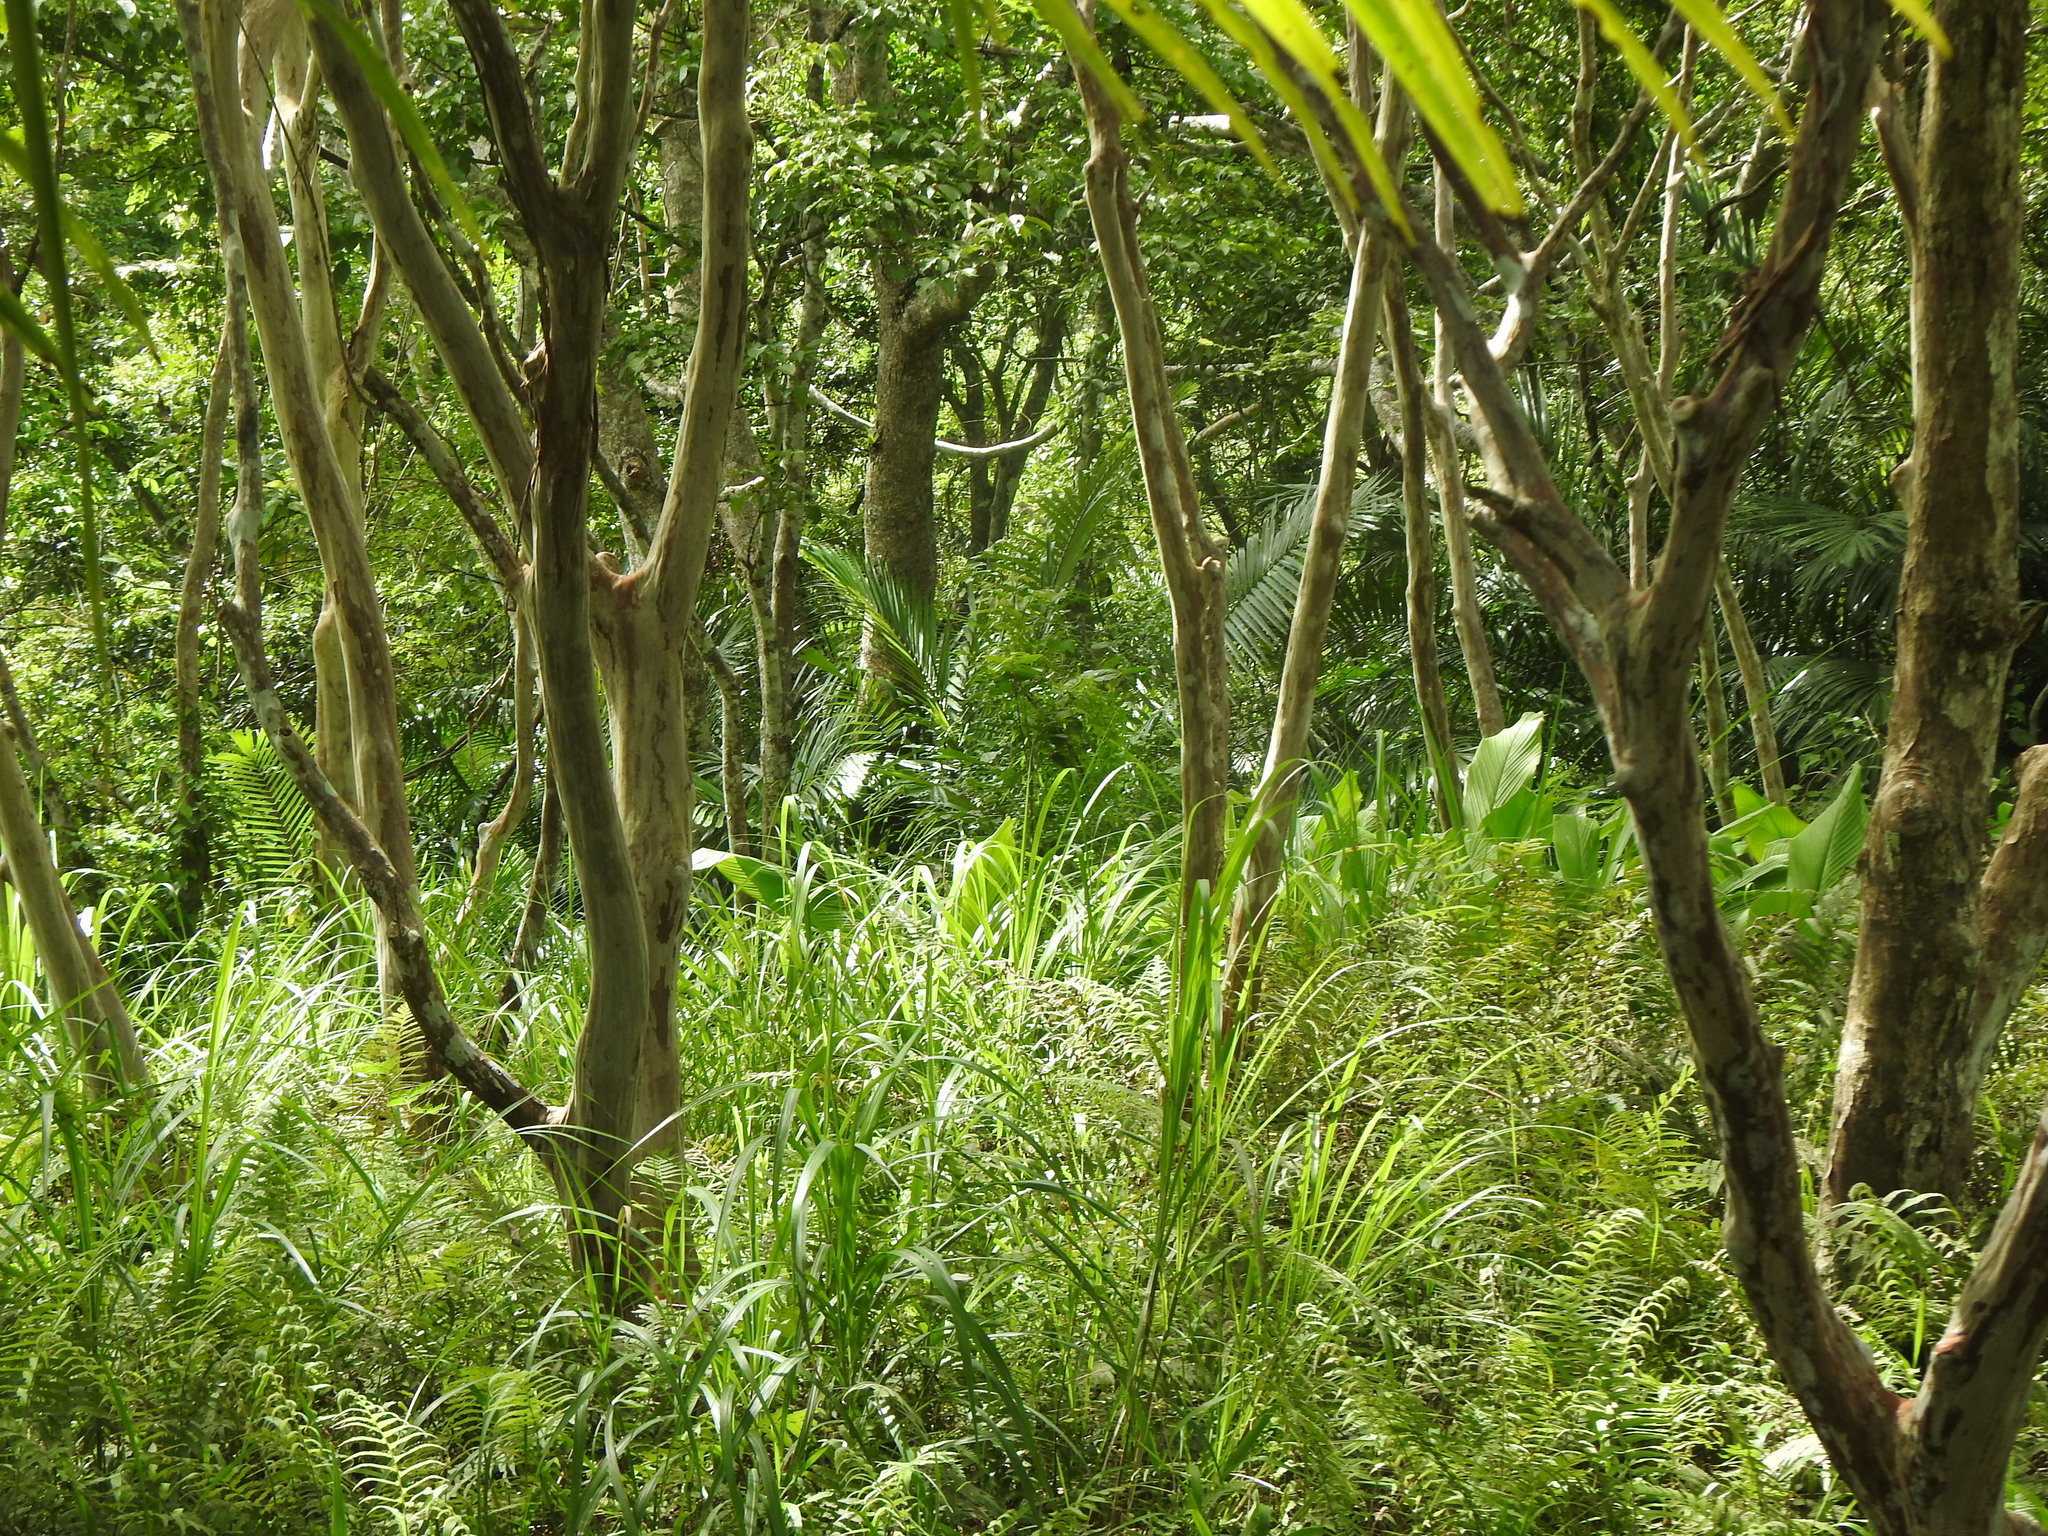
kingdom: Plantae
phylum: Tracheophyta
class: Magnoliopsida
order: Myrtales
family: Lythraceae
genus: Lagerstroemia
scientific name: Lagerstroemia subcostata
